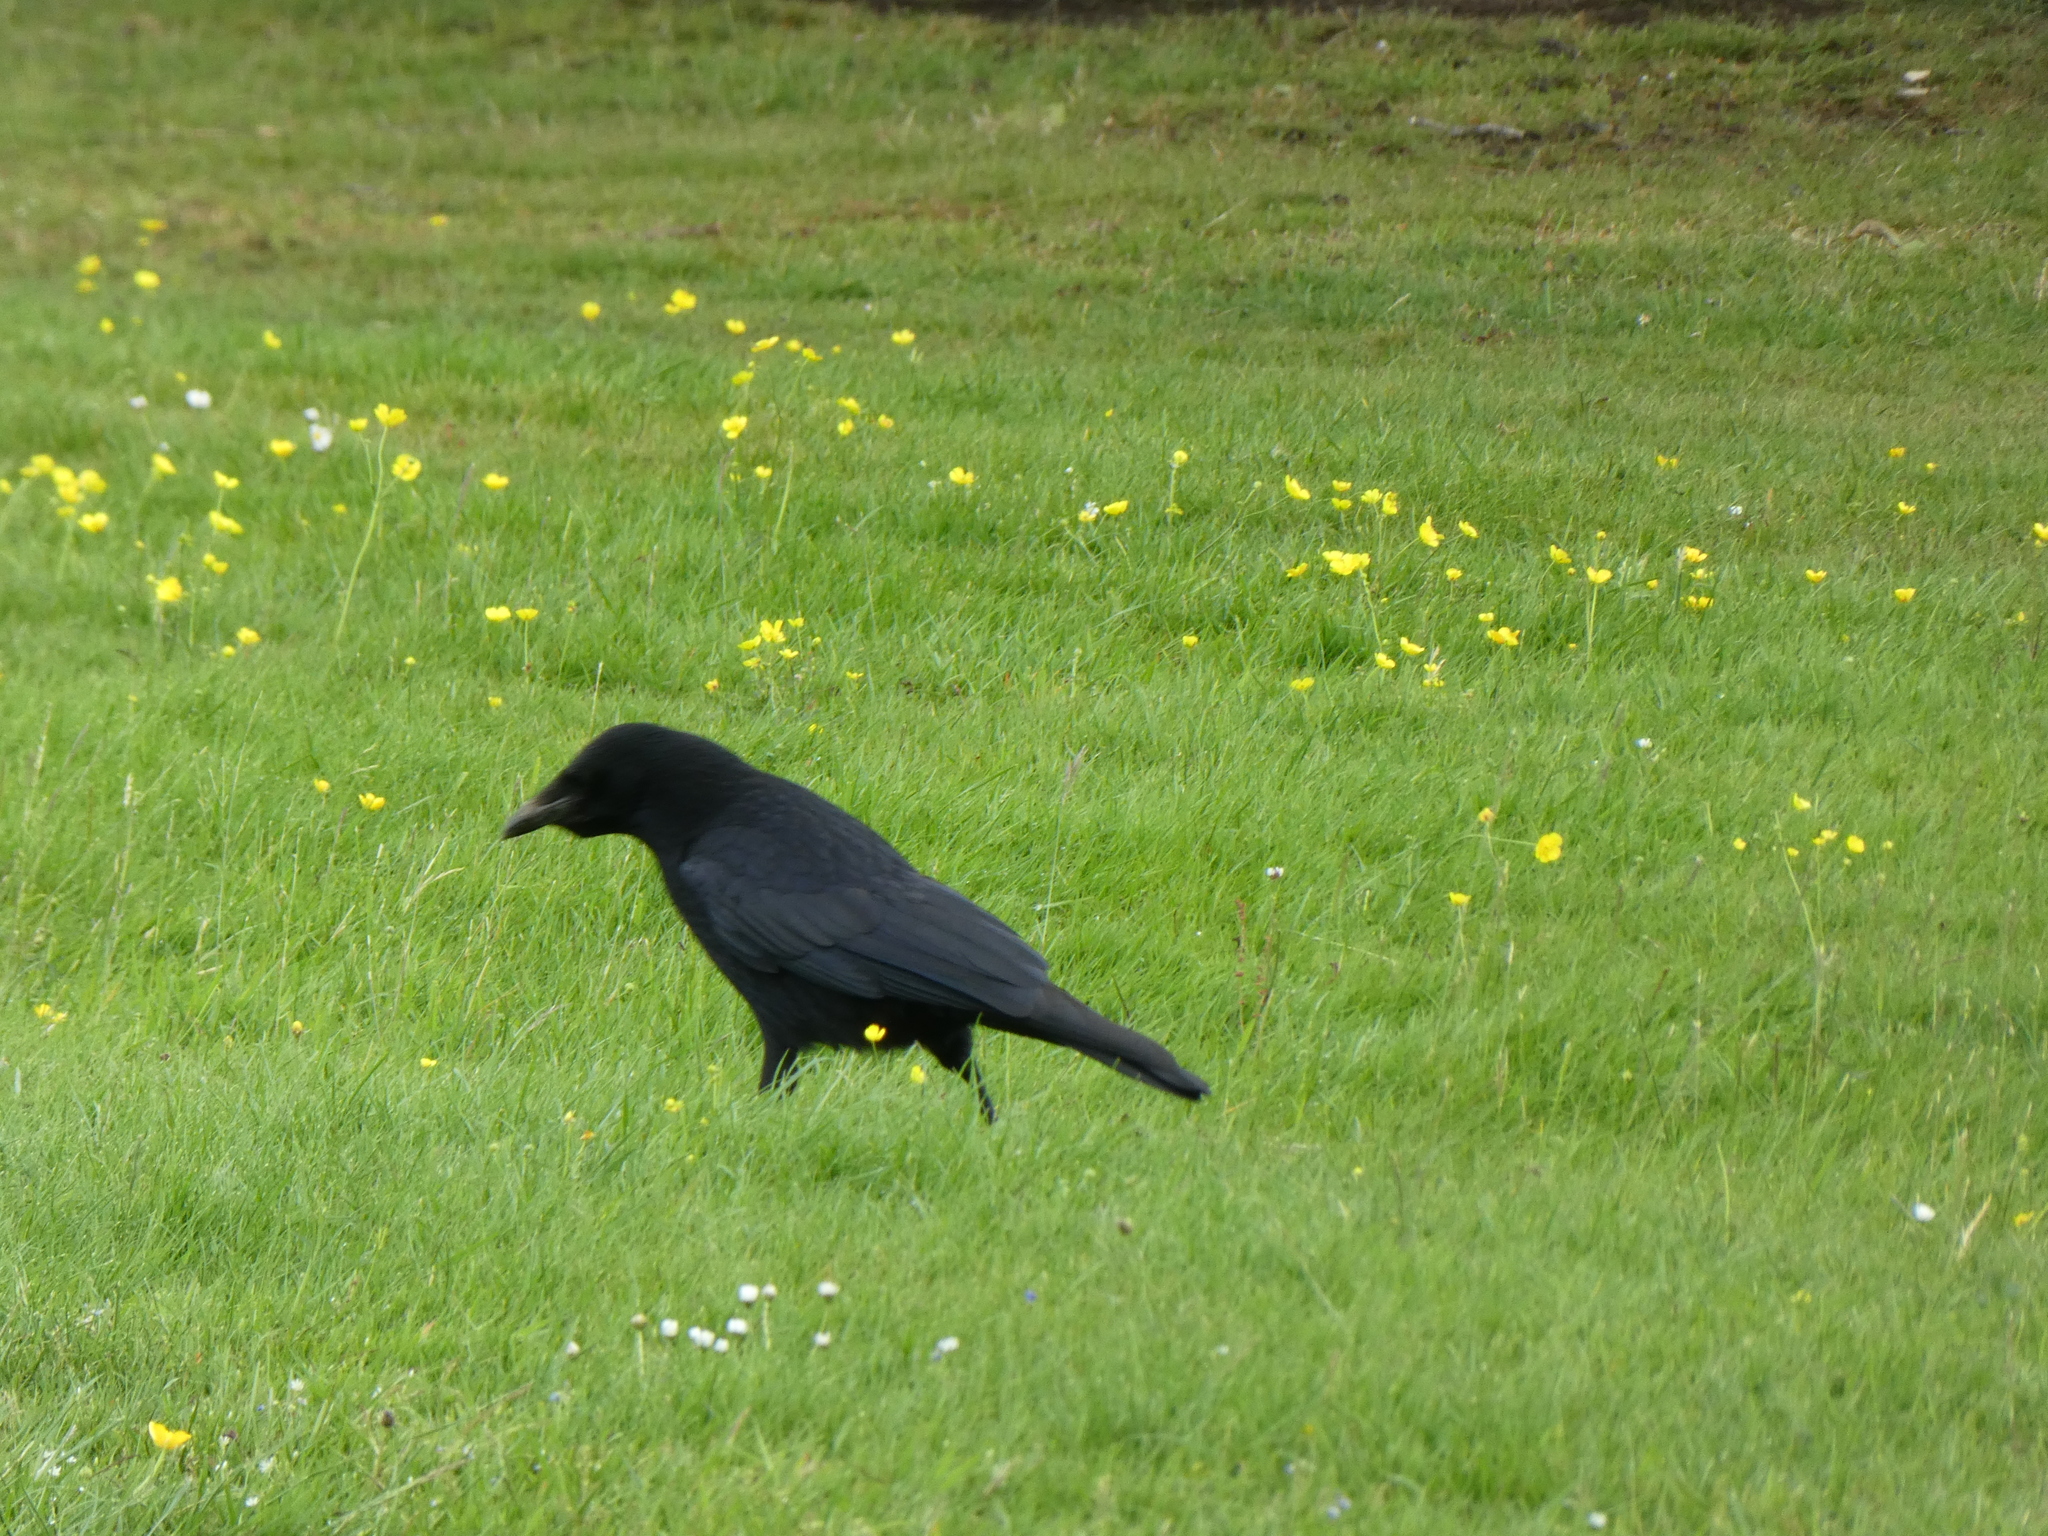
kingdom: Animalia
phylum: Chordata
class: Aves
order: Passeriformes
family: Corvidae
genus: Corvus
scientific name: Corvus corone
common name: Carrion crow
